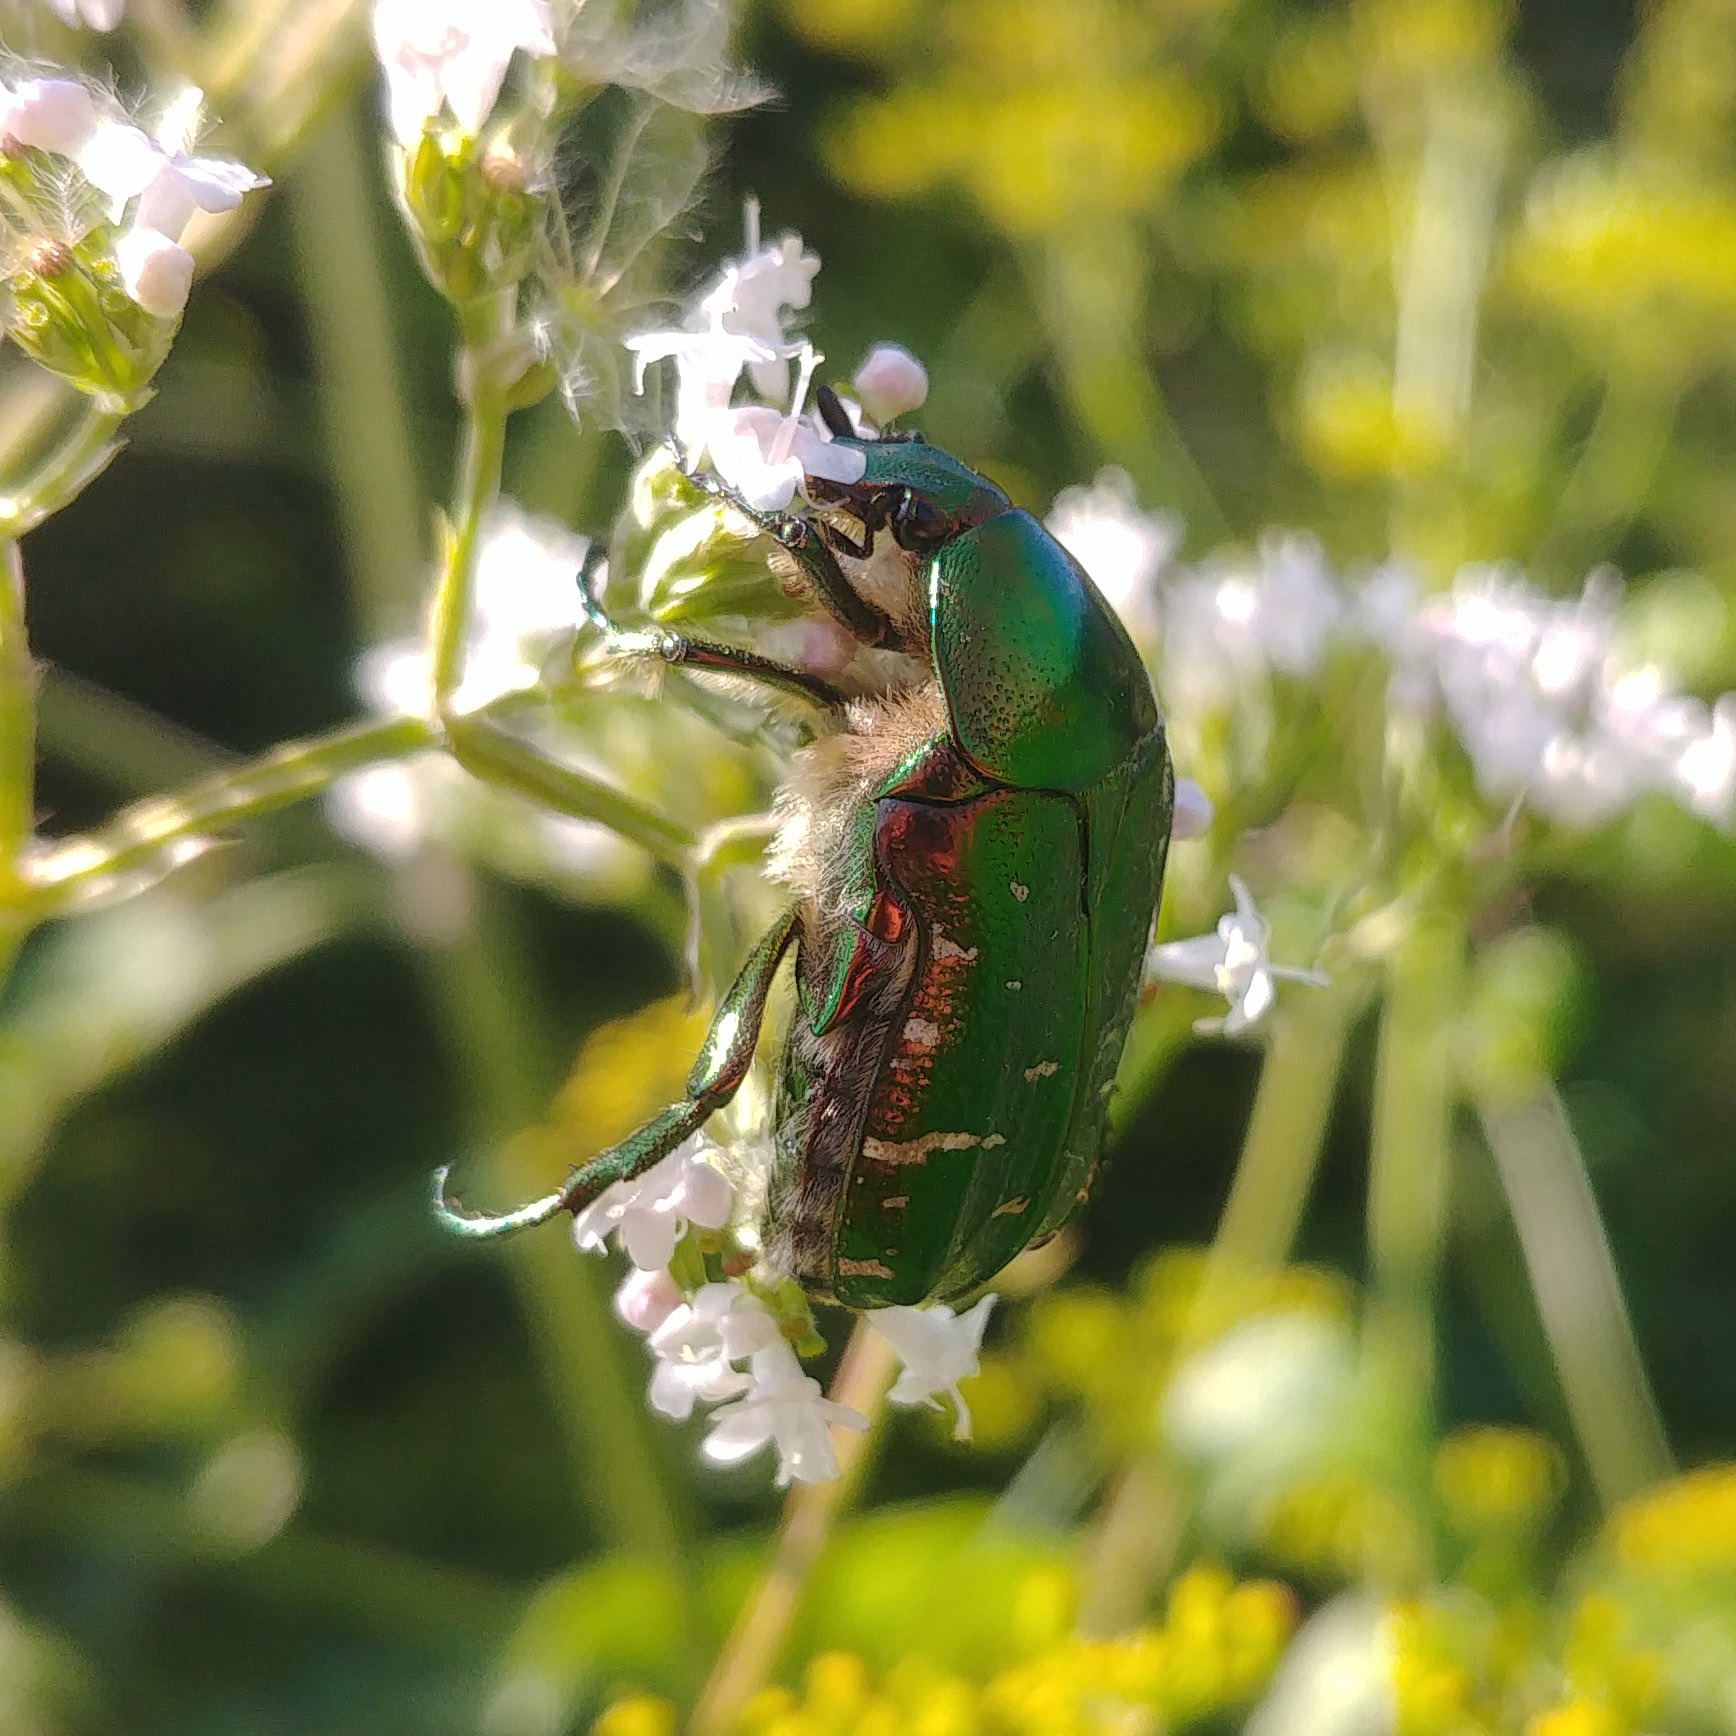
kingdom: Animalia
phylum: Arthropoda
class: Insecta
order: Coleoptera
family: Scarabaeidae
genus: Cetonia
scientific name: Cetonia aurata
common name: Rose chafer
